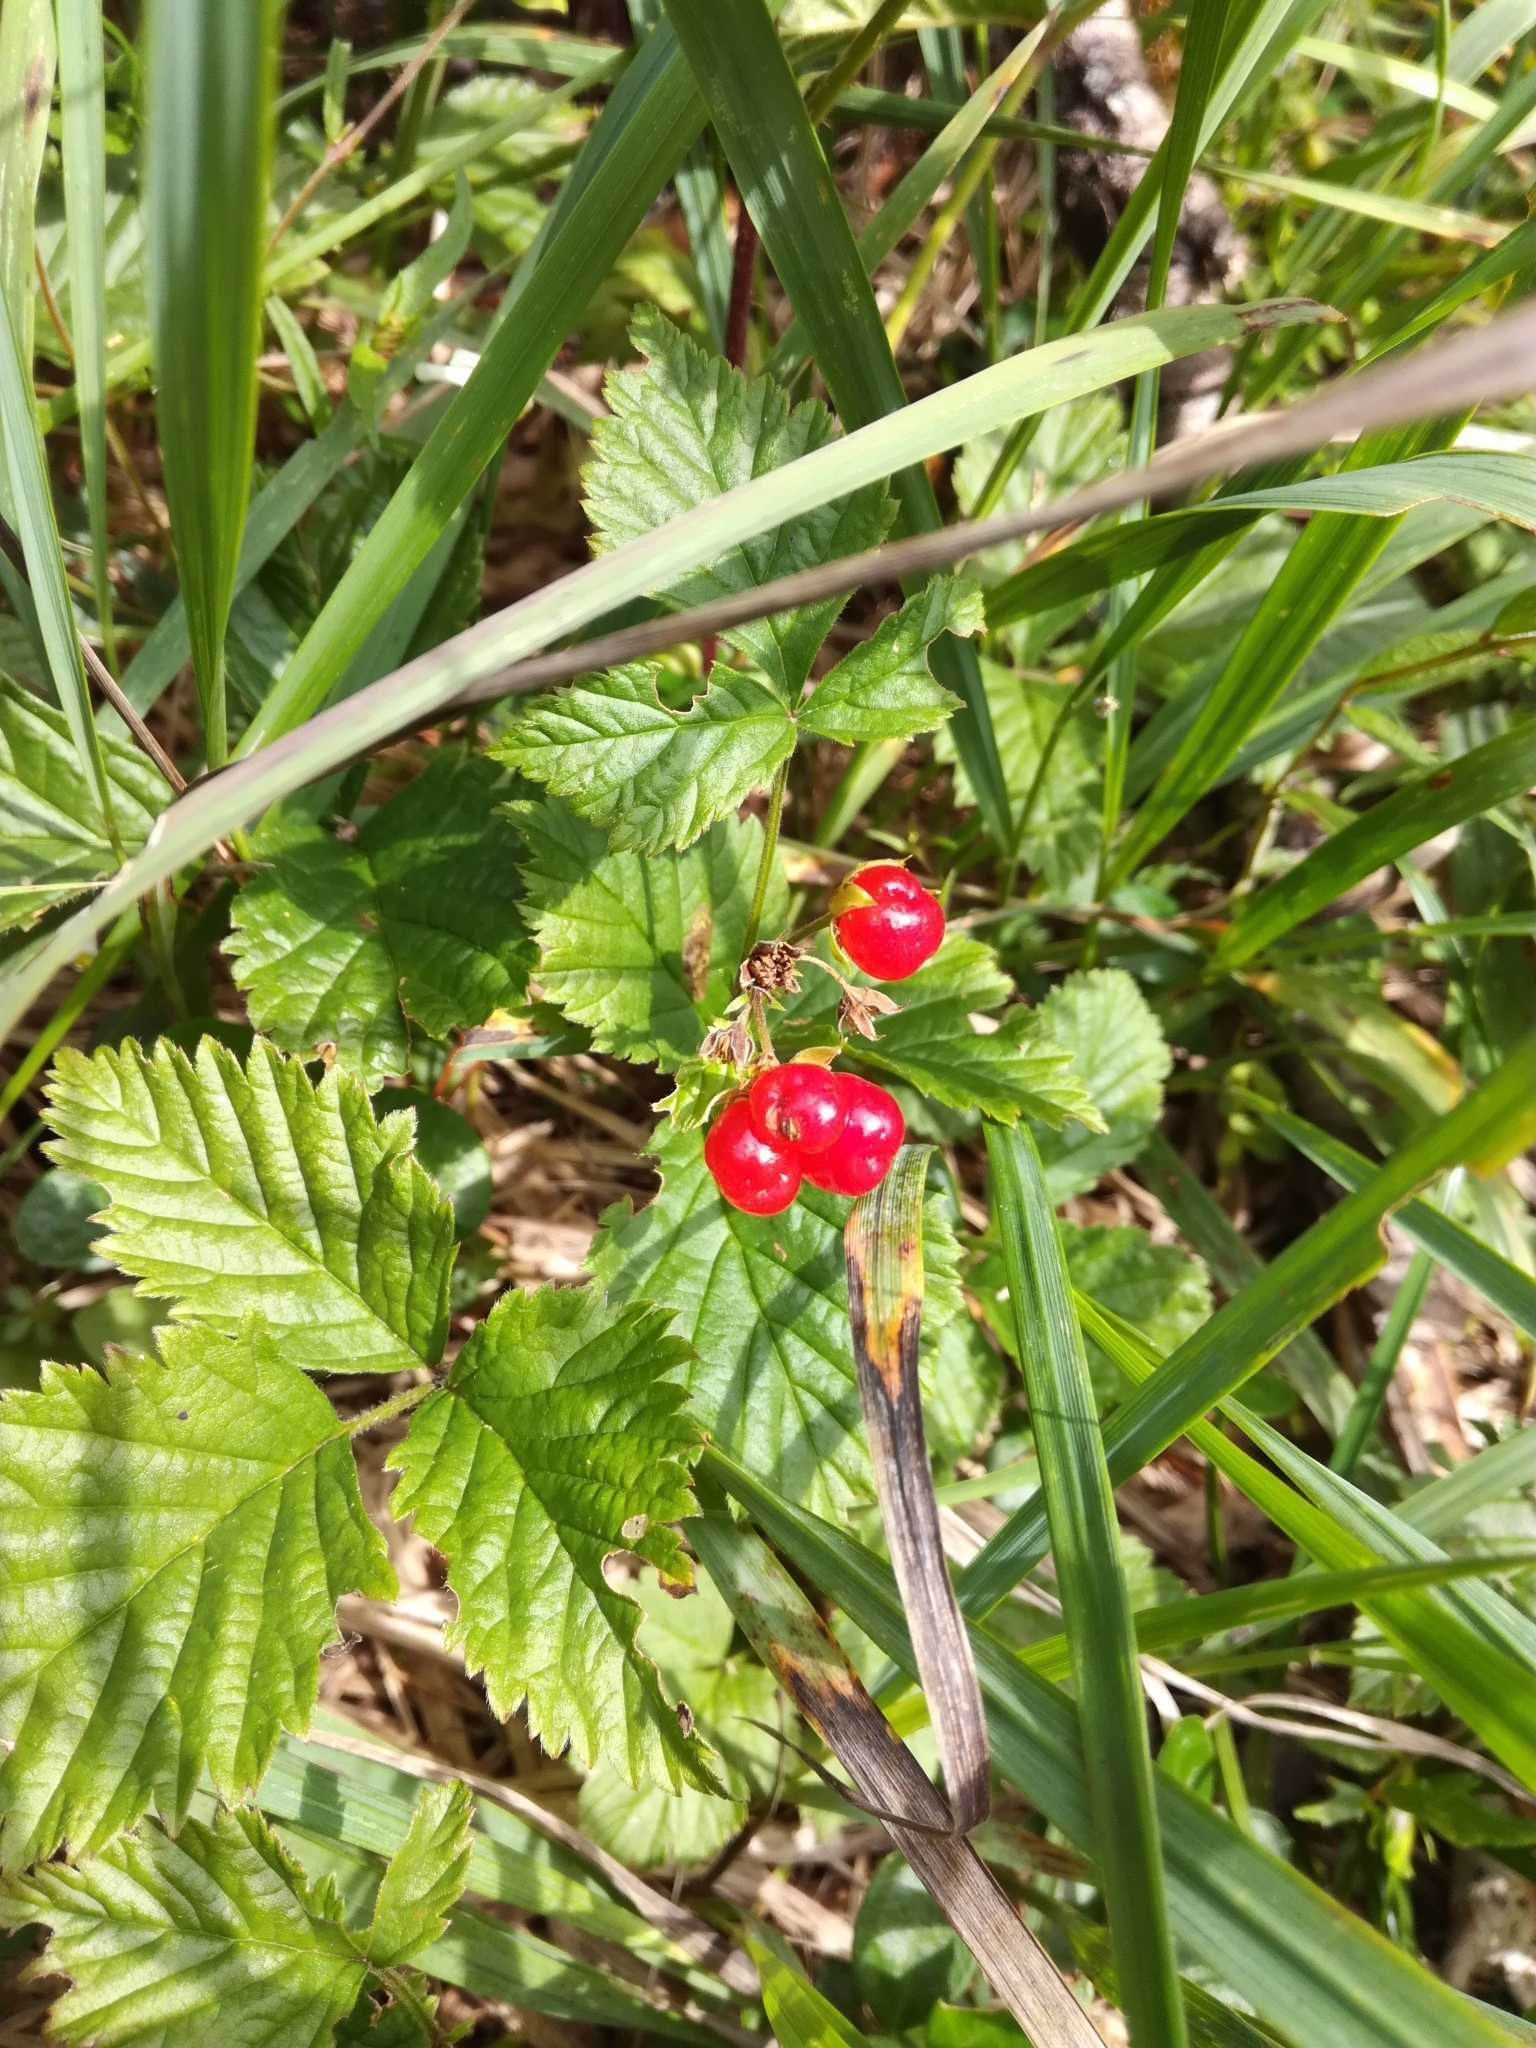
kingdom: Plantae
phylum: Tracheophyta
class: Magnoliopsida
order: Rosales
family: Rosaceae
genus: Rubus
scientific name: Rubus saxatilis
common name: Stone bramble
